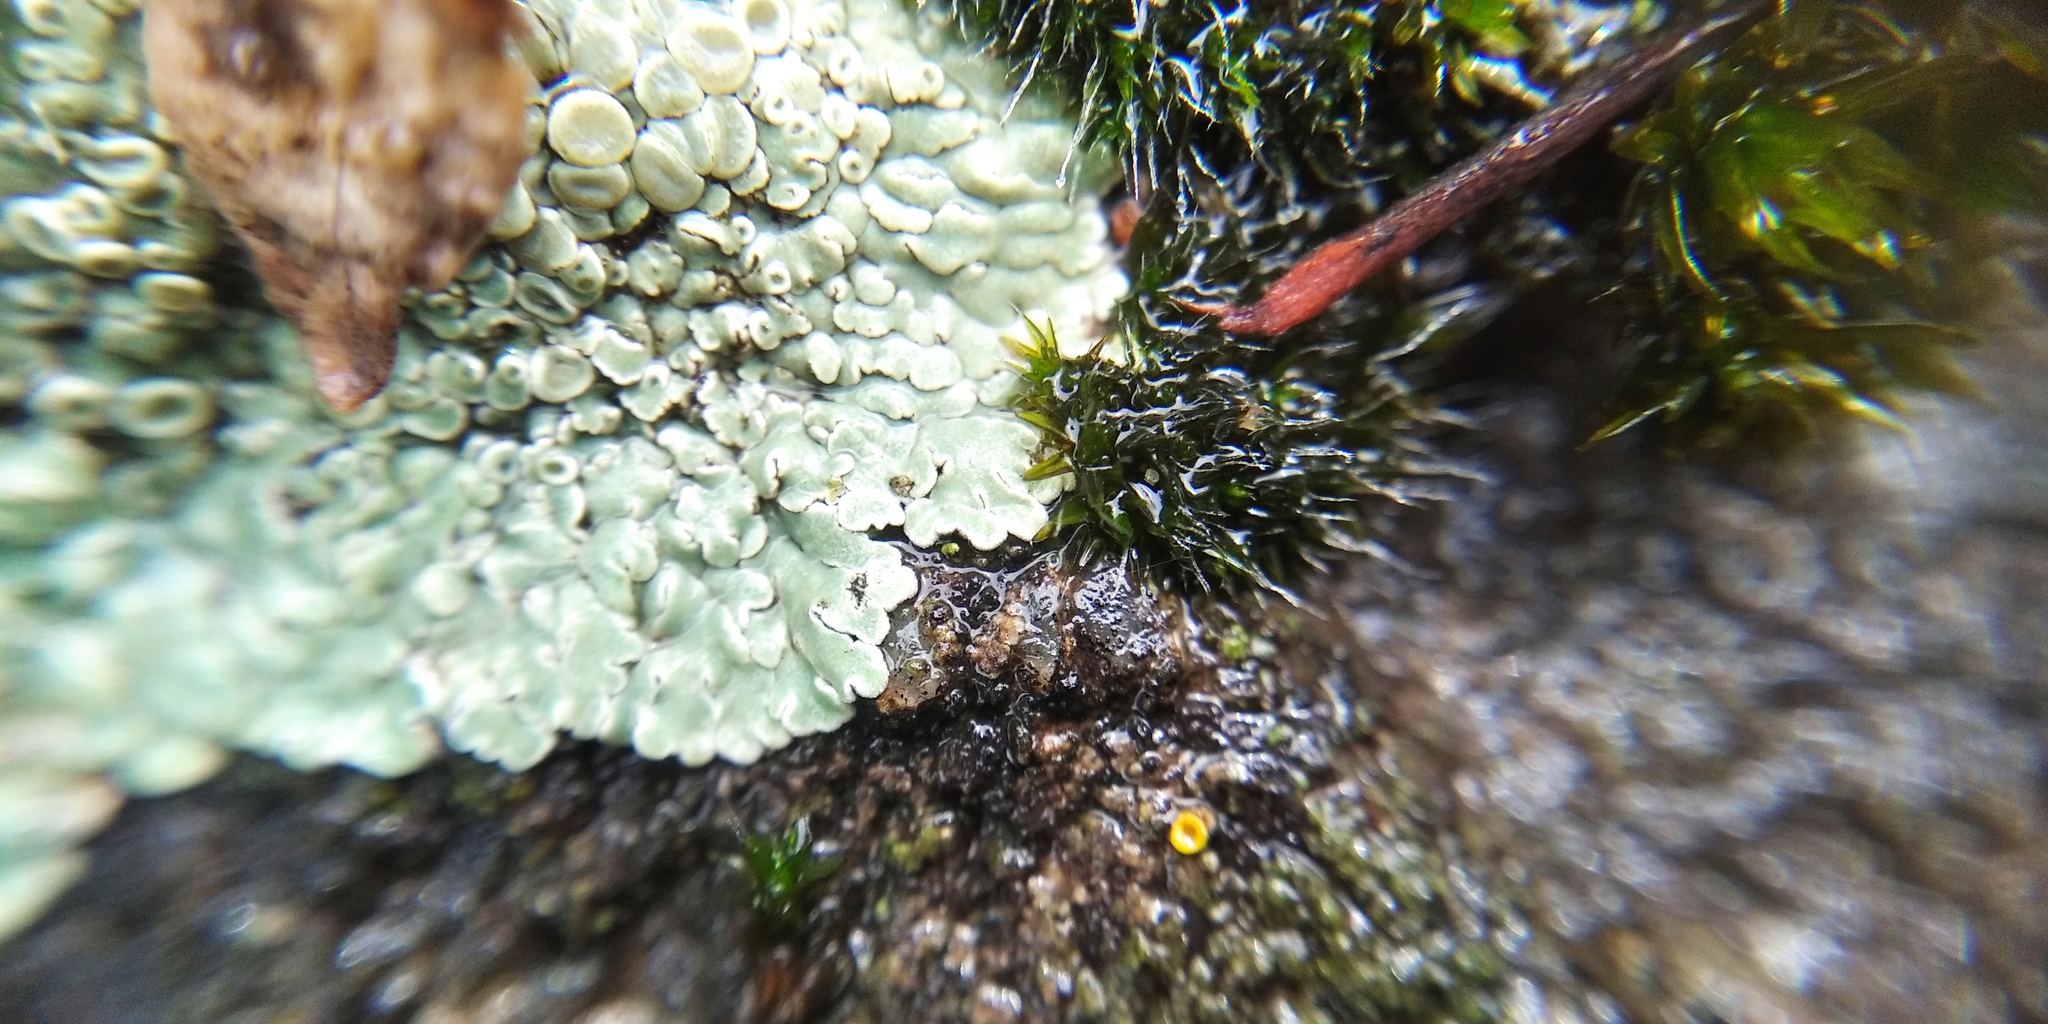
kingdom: Fungi
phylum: Ascomycota
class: Lecanoromycetes
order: Lecanorales
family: Lecanoraceae
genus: Protoparmeliopsis
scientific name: Protoparmeliopsis muralis
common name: Stonewall rim lichen
